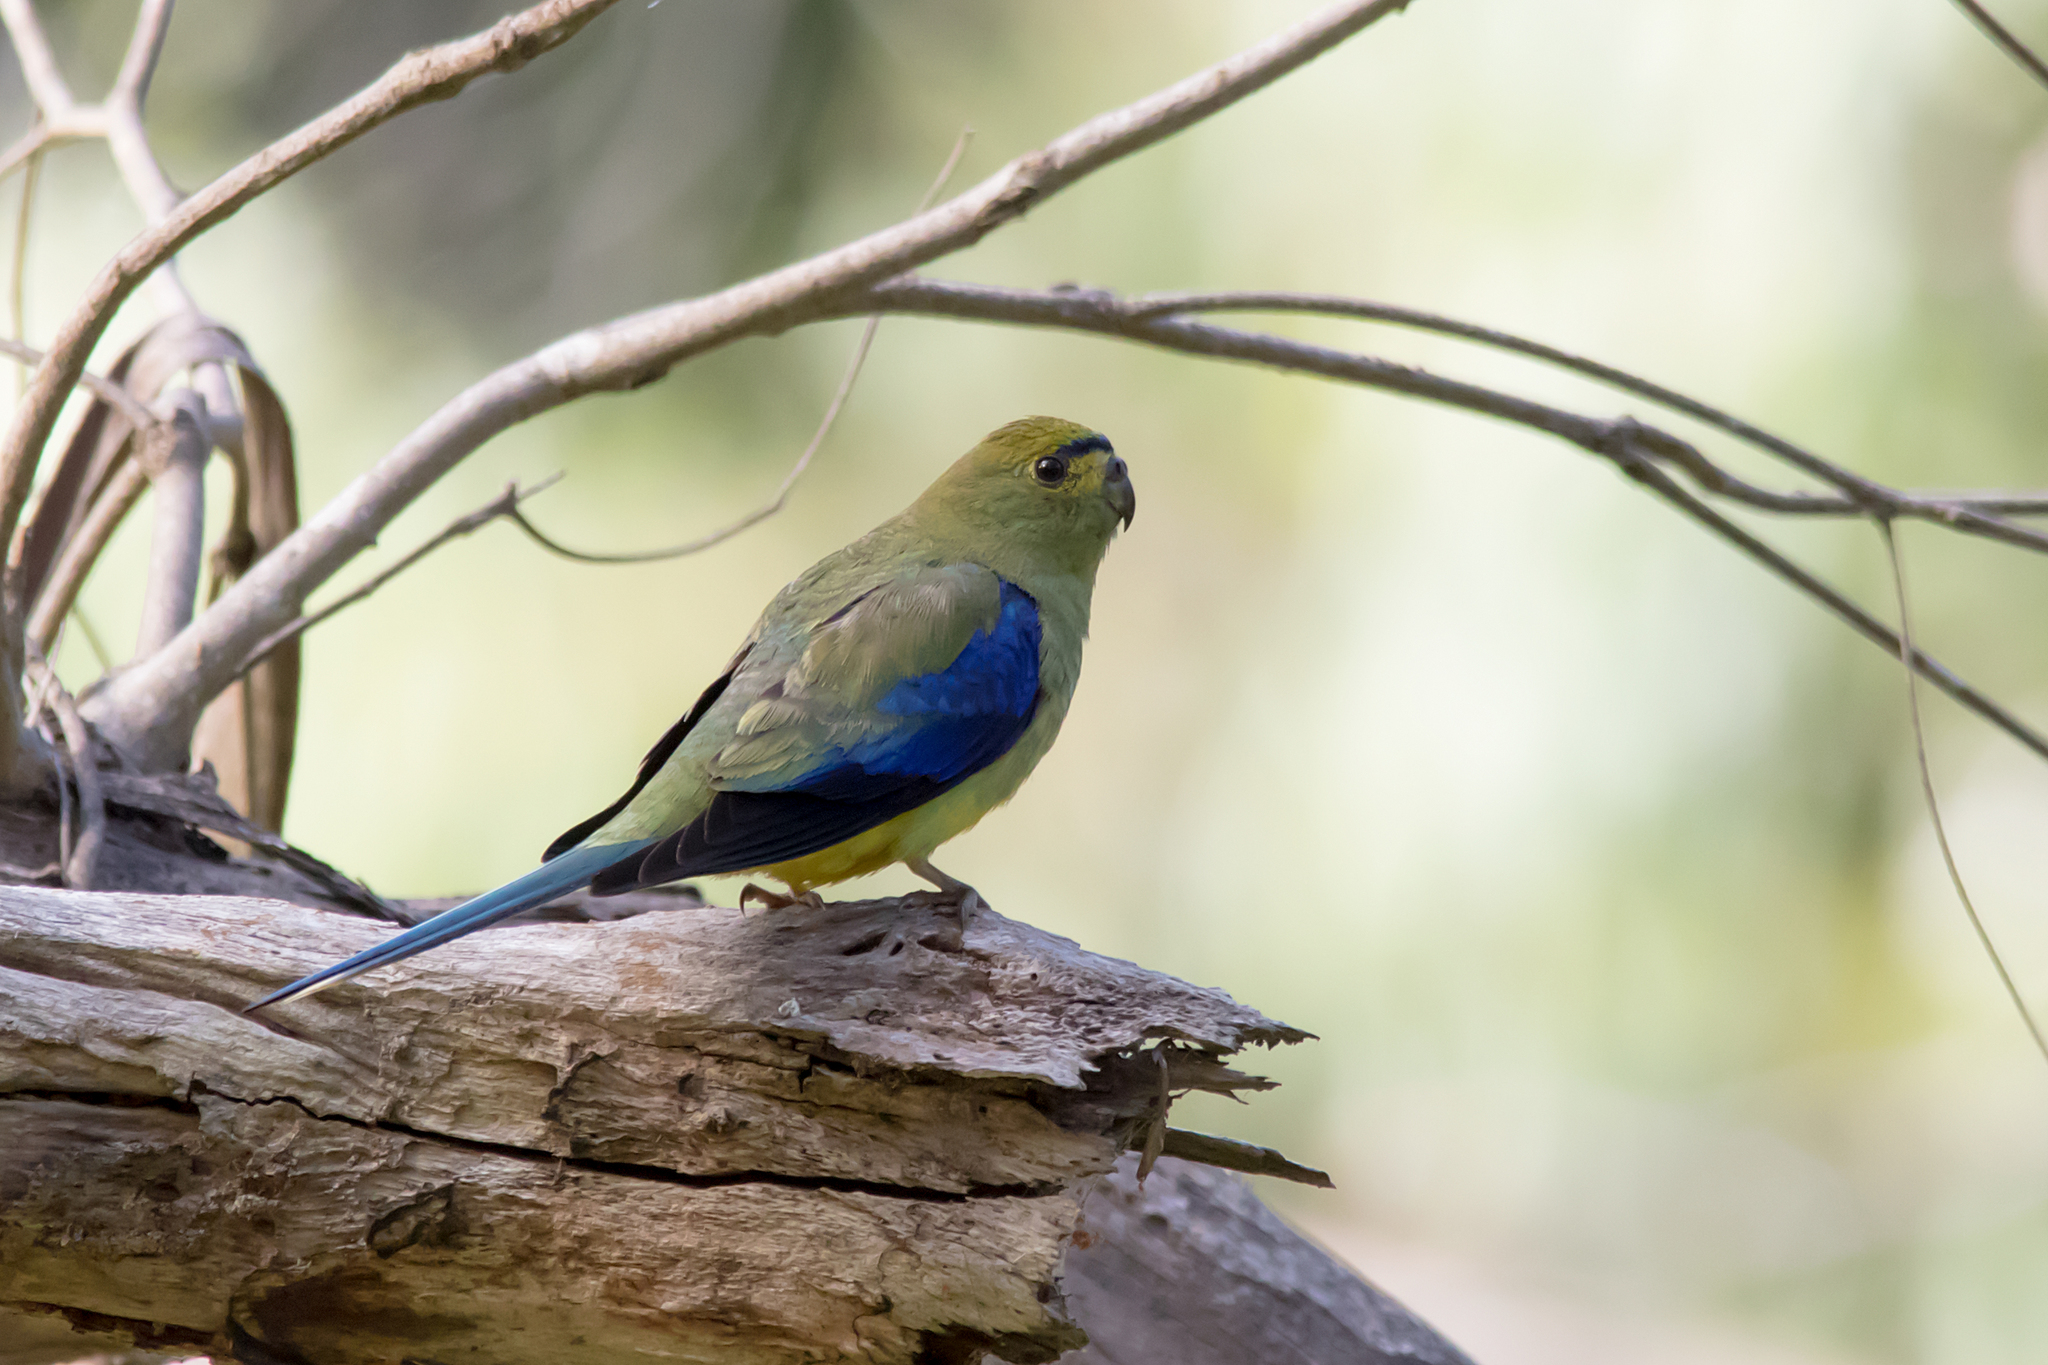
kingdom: Animalia
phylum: Chordata
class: Aves
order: Psittaciformes
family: Psittacidae
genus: Neophema
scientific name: Neophema chrysostoma
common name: Blue-winged parrot
